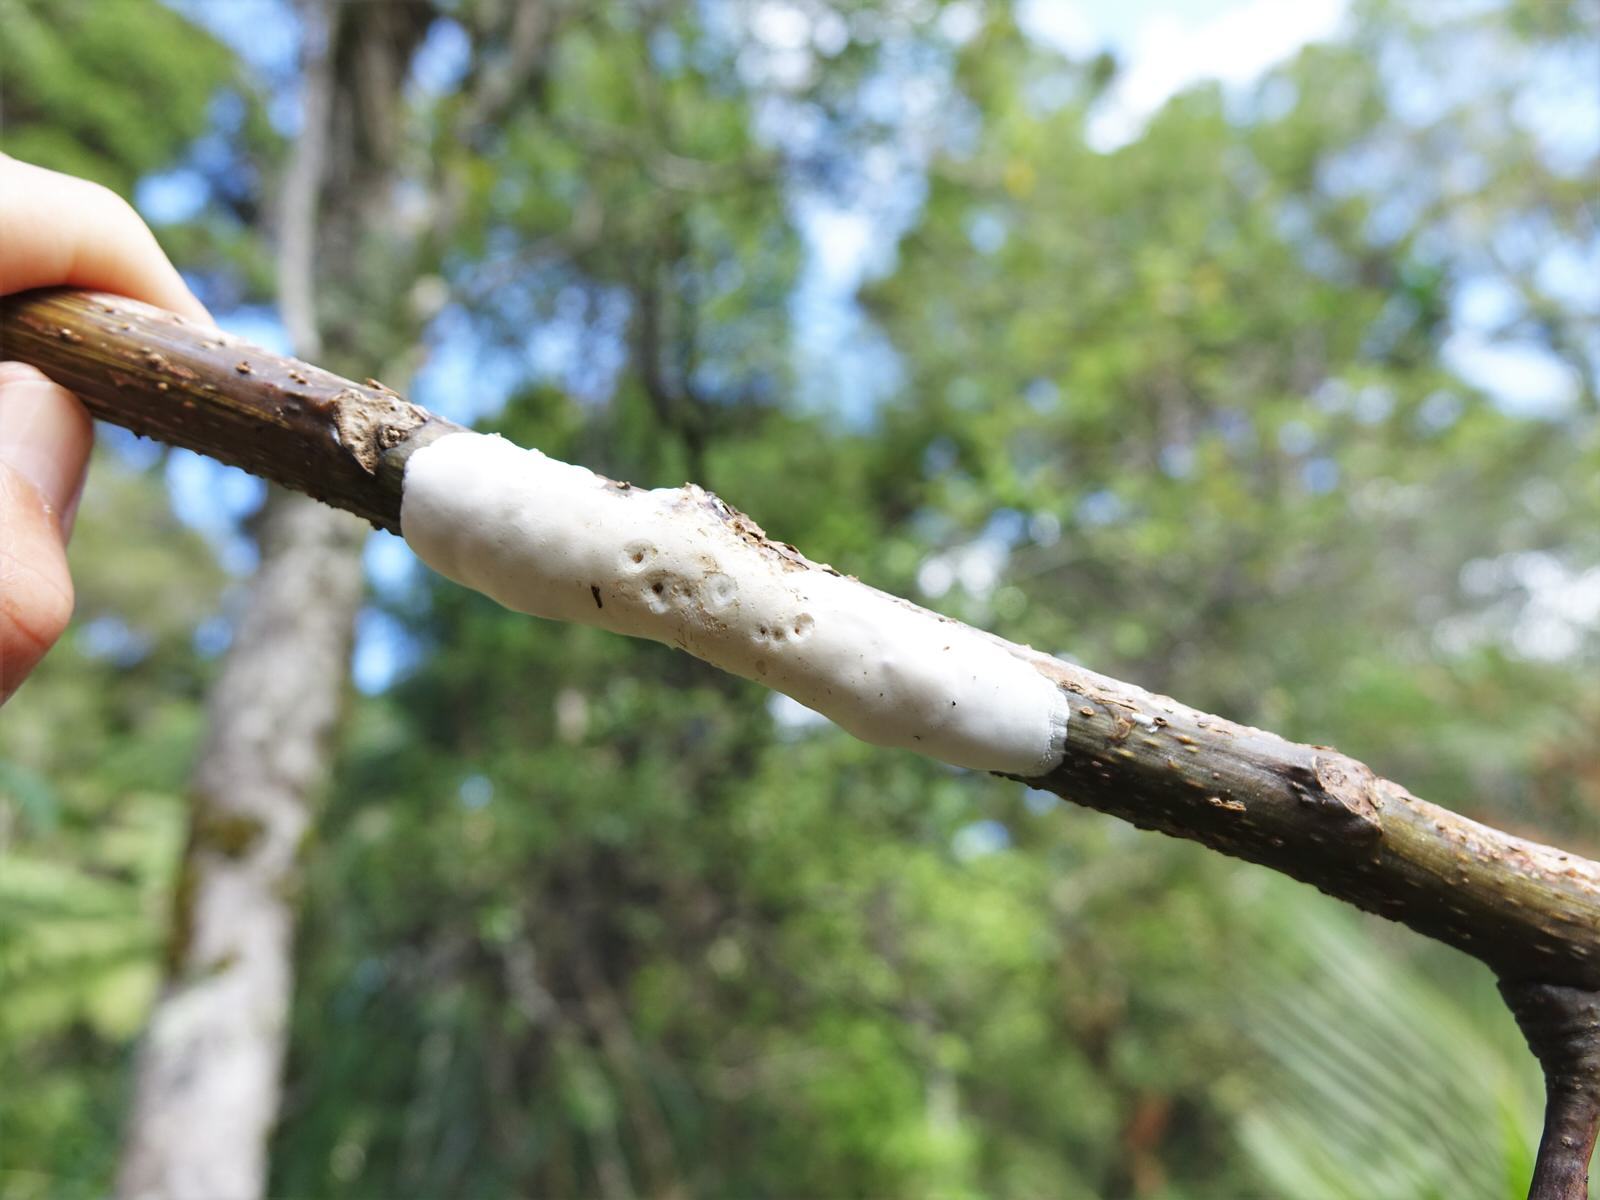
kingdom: Fungi
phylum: Basidiomycota
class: Pucciniomycetes
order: Septobasidiales
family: Septobasidiaceae
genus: Septobasidium
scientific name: Septobasidium simmondsii
